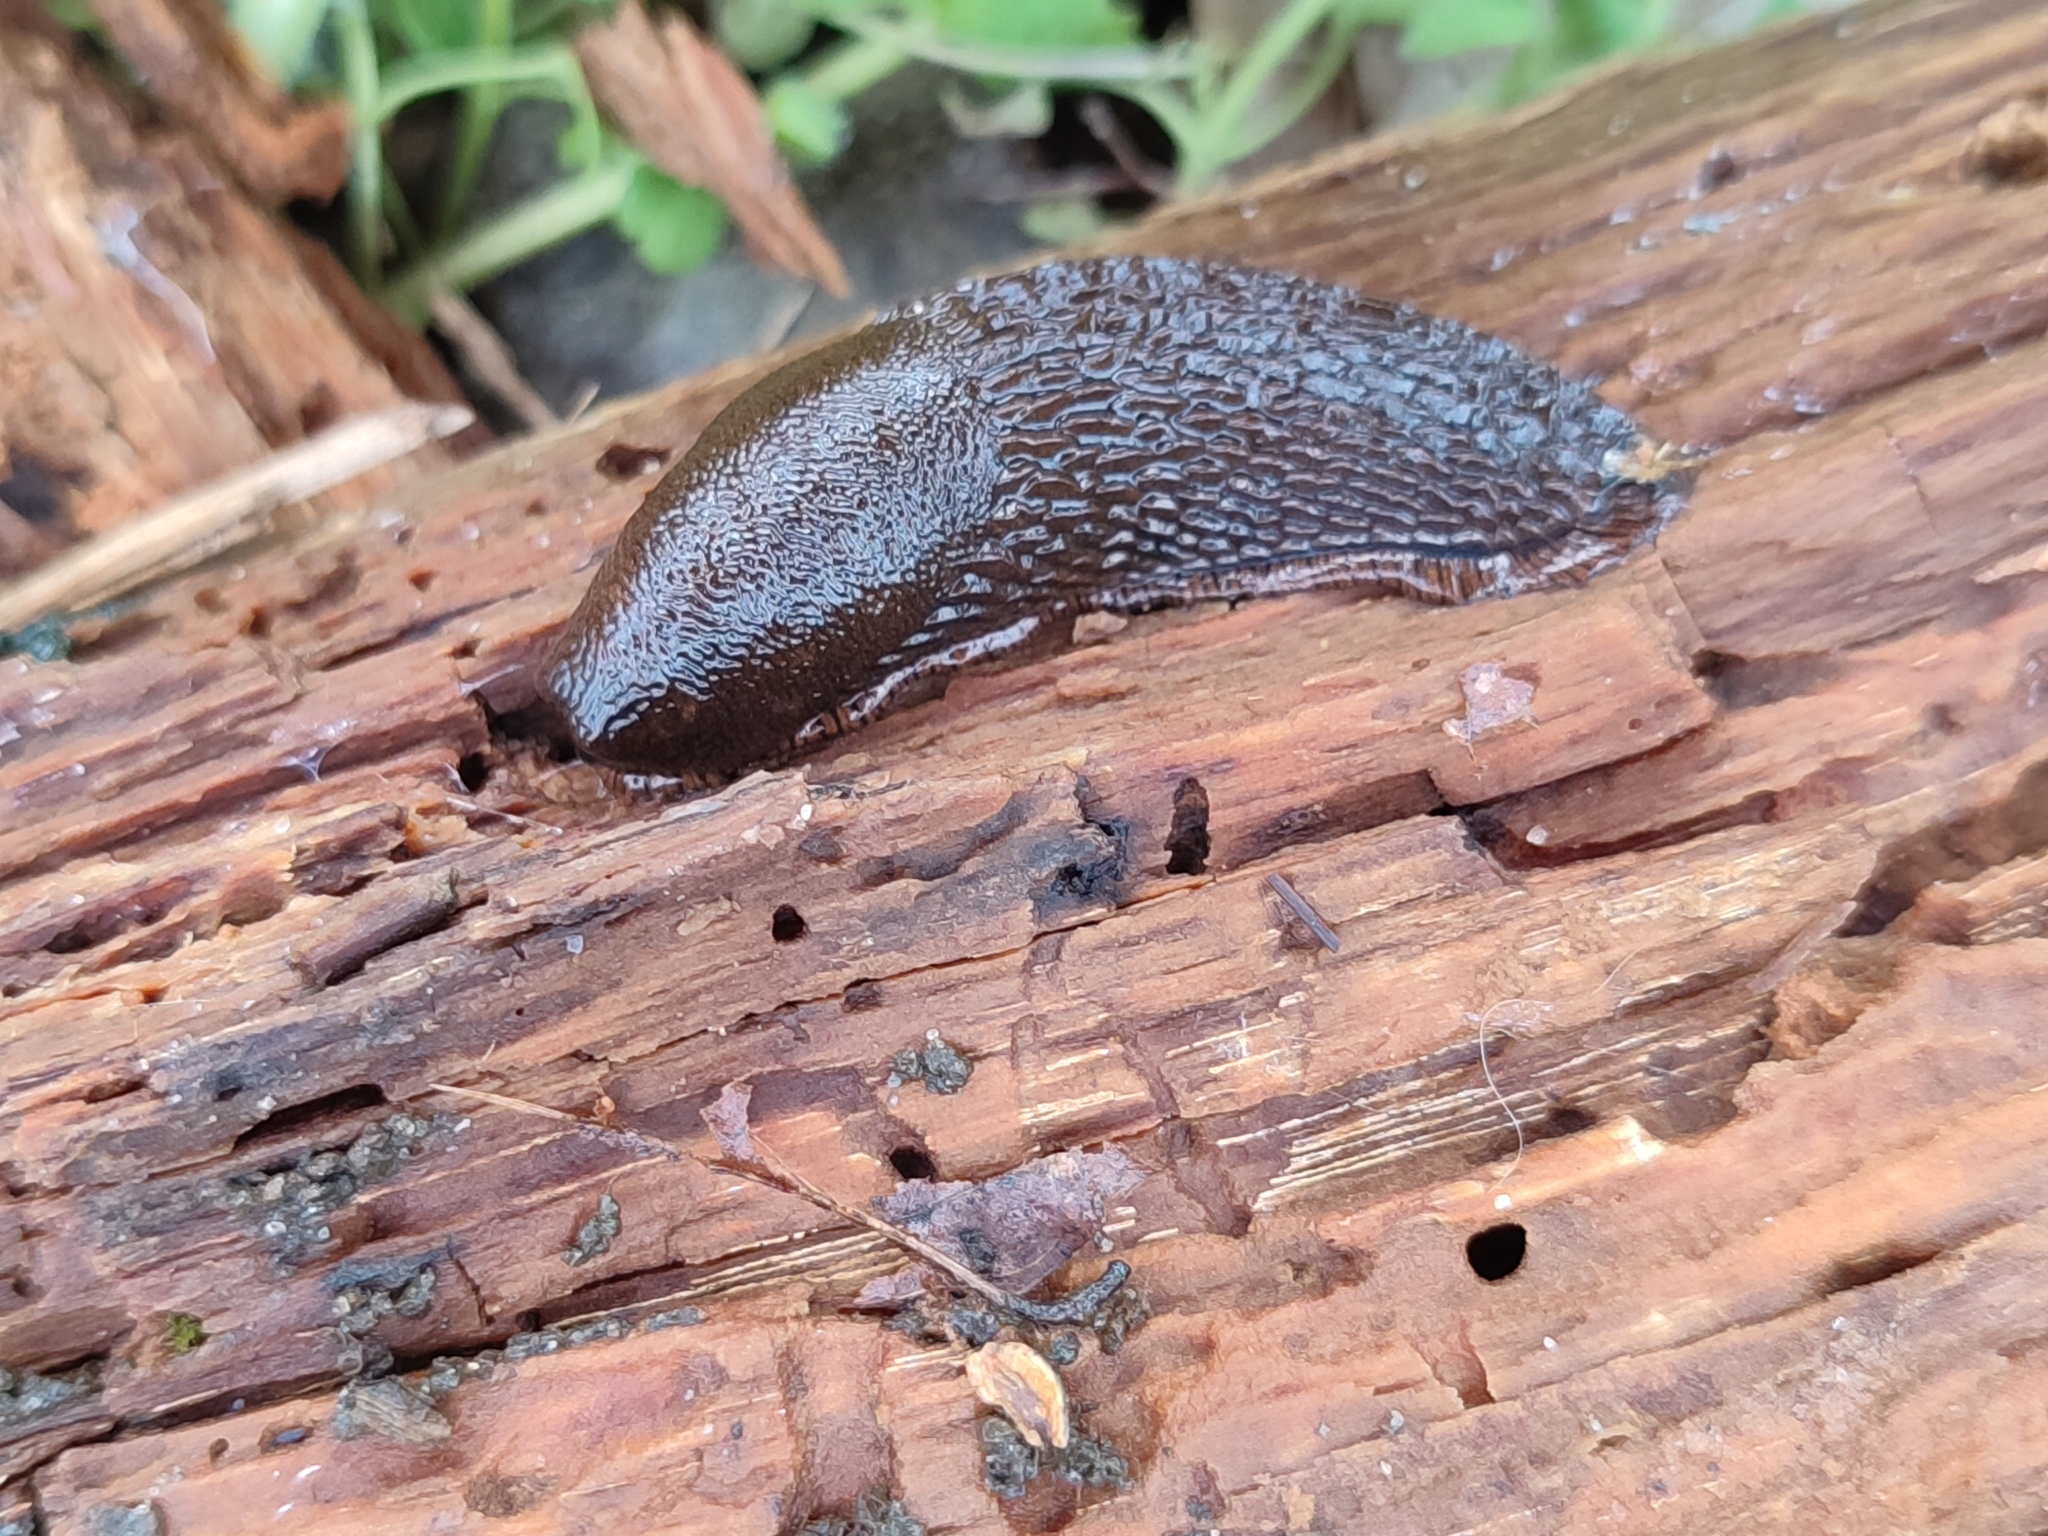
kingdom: Animalia
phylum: Mollusca
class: Gastropoda
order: Stylommatophora
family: Arionidae
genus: Arion
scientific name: Arion vulgaris
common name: Lusitanian slug
